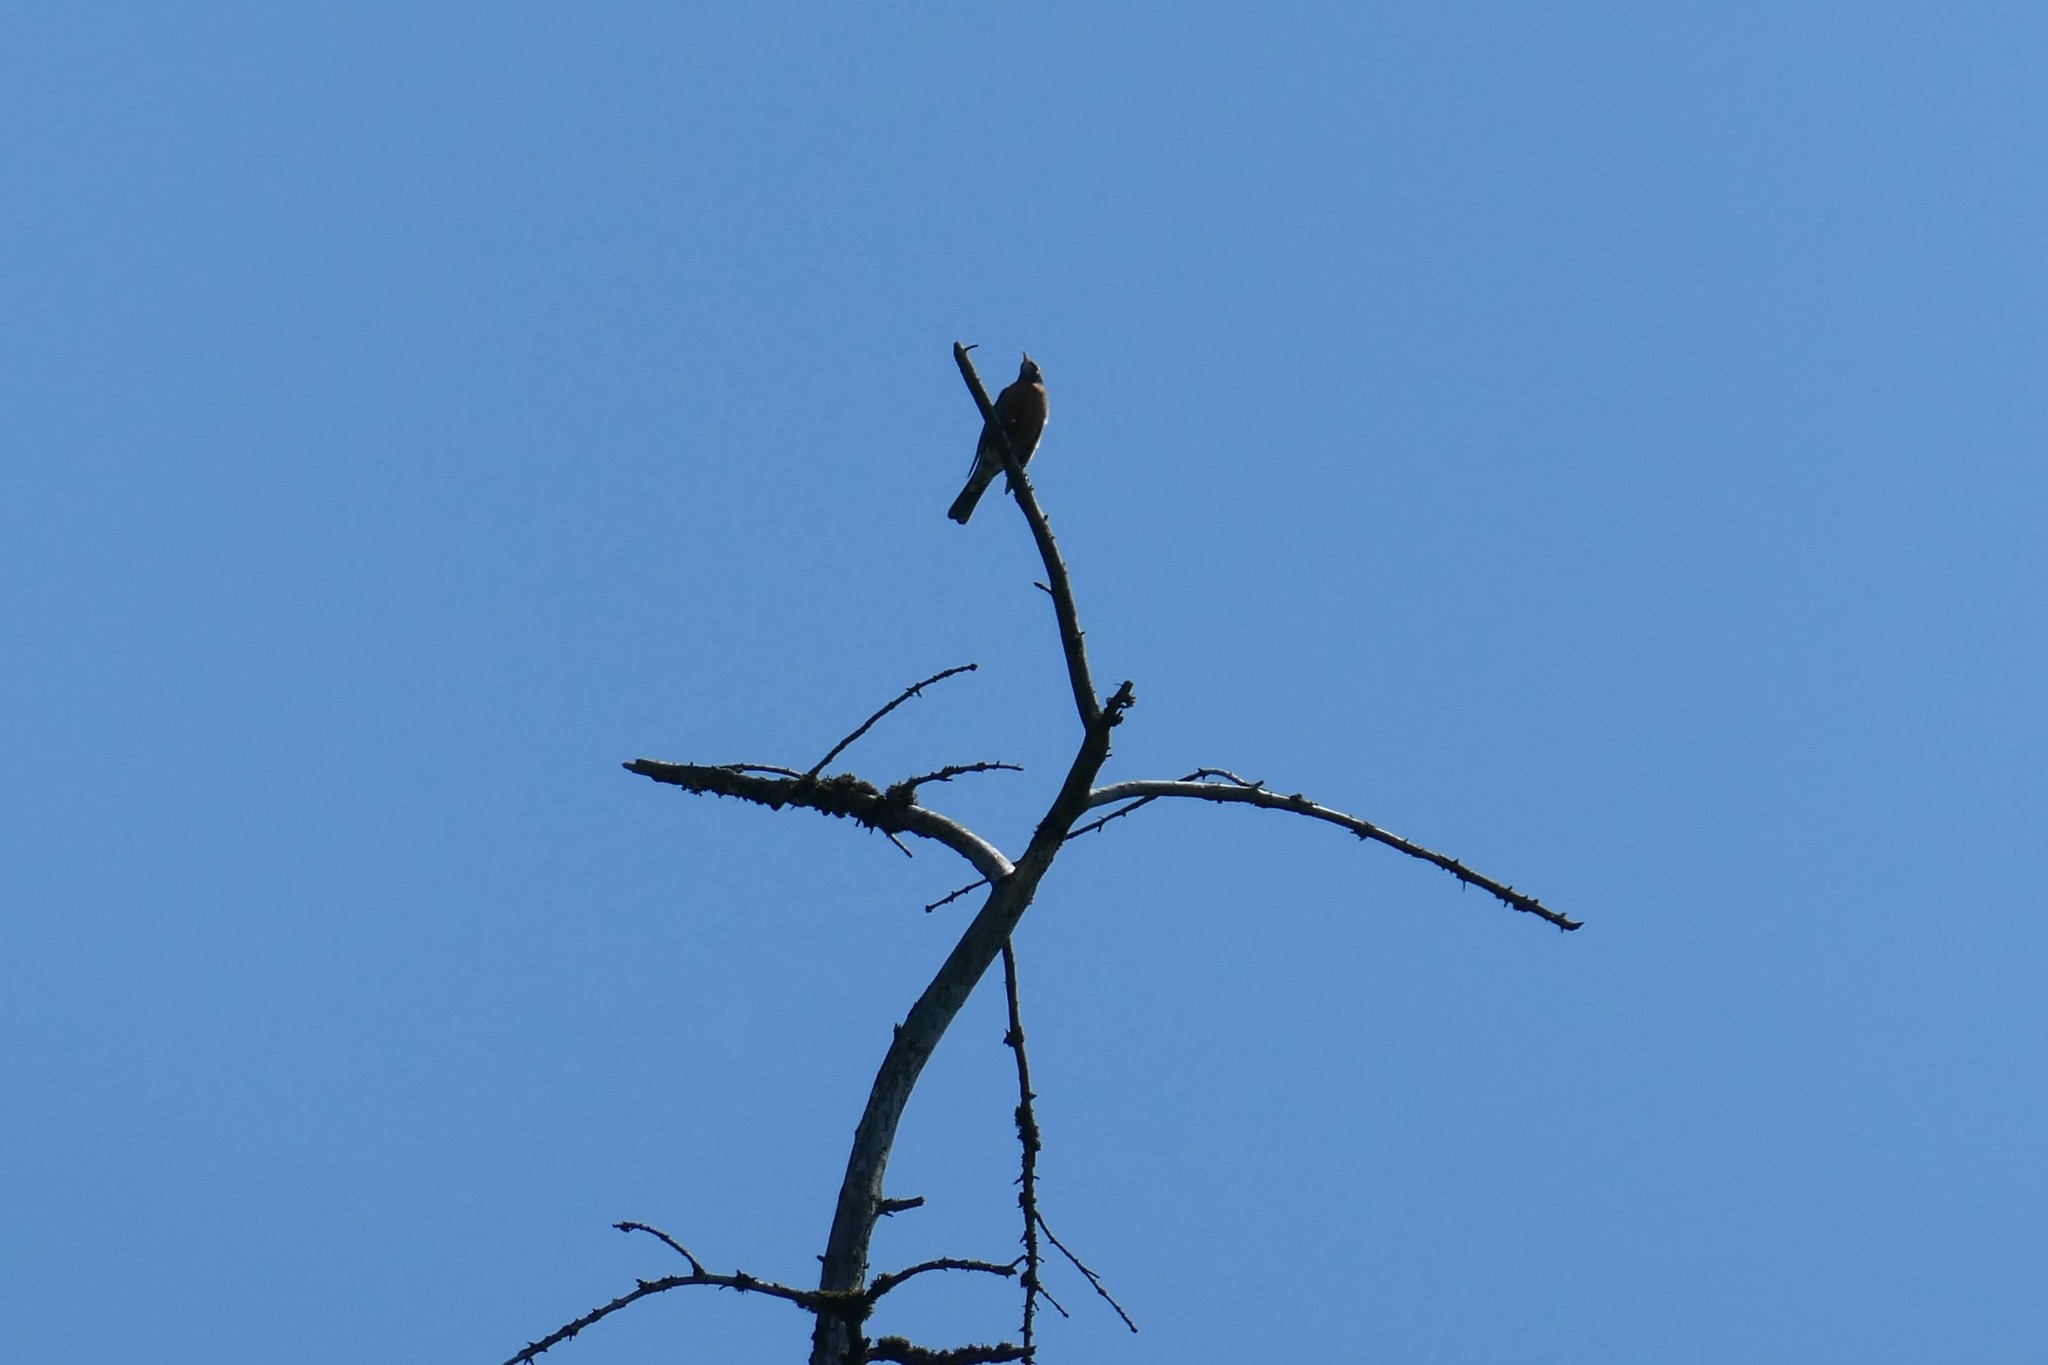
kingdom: Animalia
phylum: Chordata
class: Aves
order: Passeriformes
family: Turdidae
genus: Turdus
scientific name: Turdus migratorius
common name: American robin
